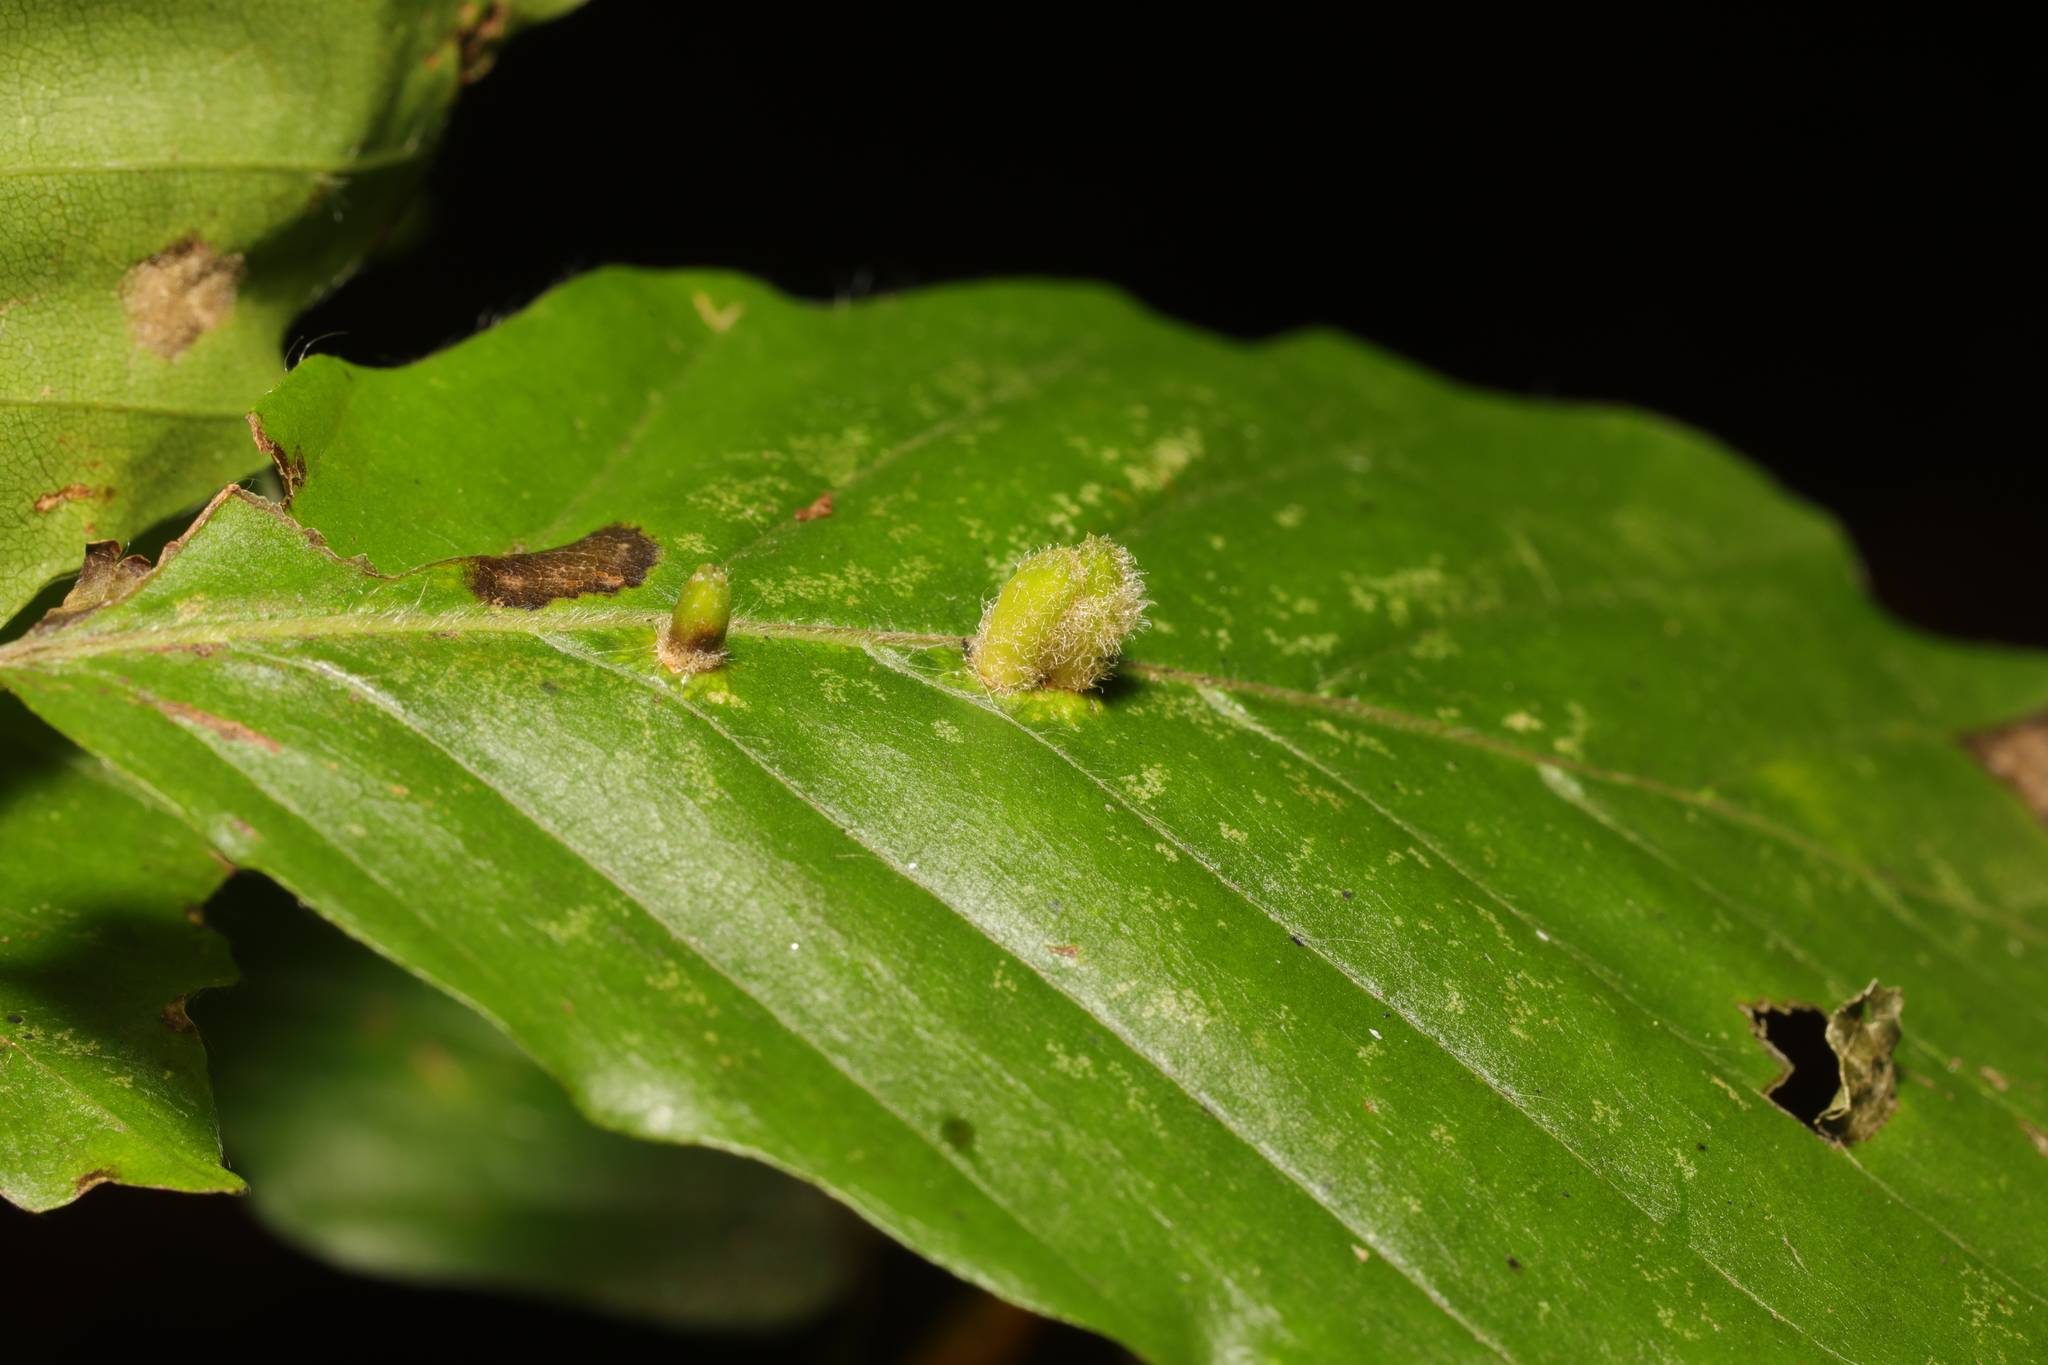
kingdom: Animalia
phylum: Arthropoda
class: Insecta
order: Diptera
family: Cecidomyiidae
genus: Hartigiola
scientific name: Hartigiola annulipes
